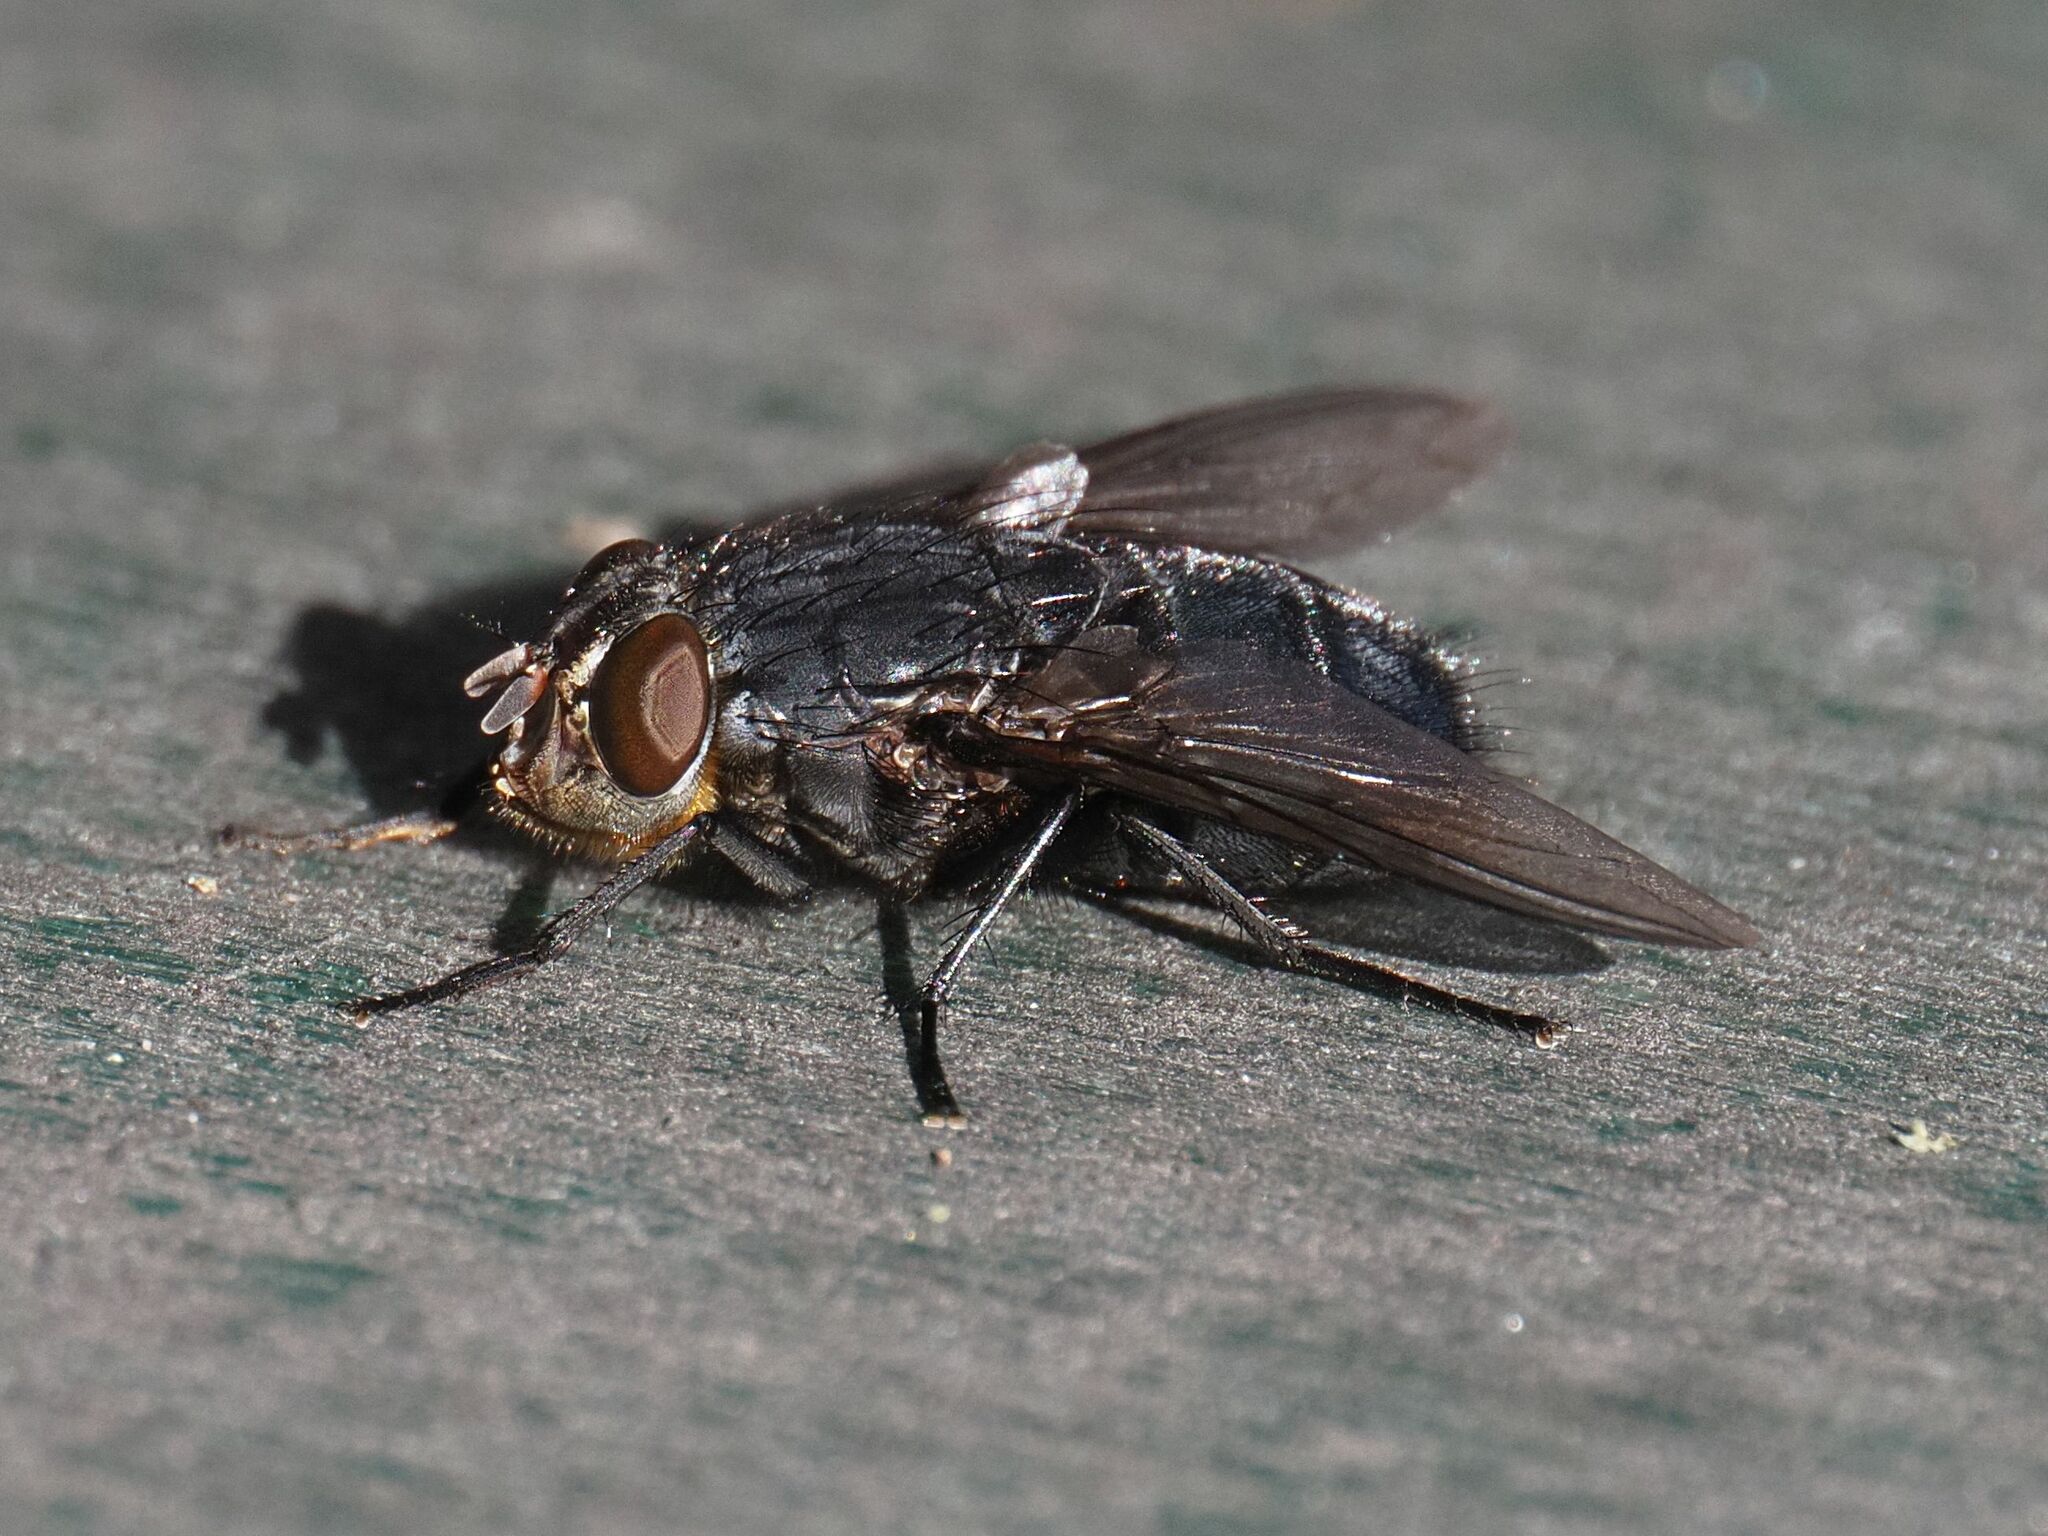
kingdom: Animalia
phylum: Arthropoda
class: Insecta
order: Diptera
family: Calliphoridae
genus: Calliphora
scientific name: Calliphora vomitoria
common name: Blue bottle fly
